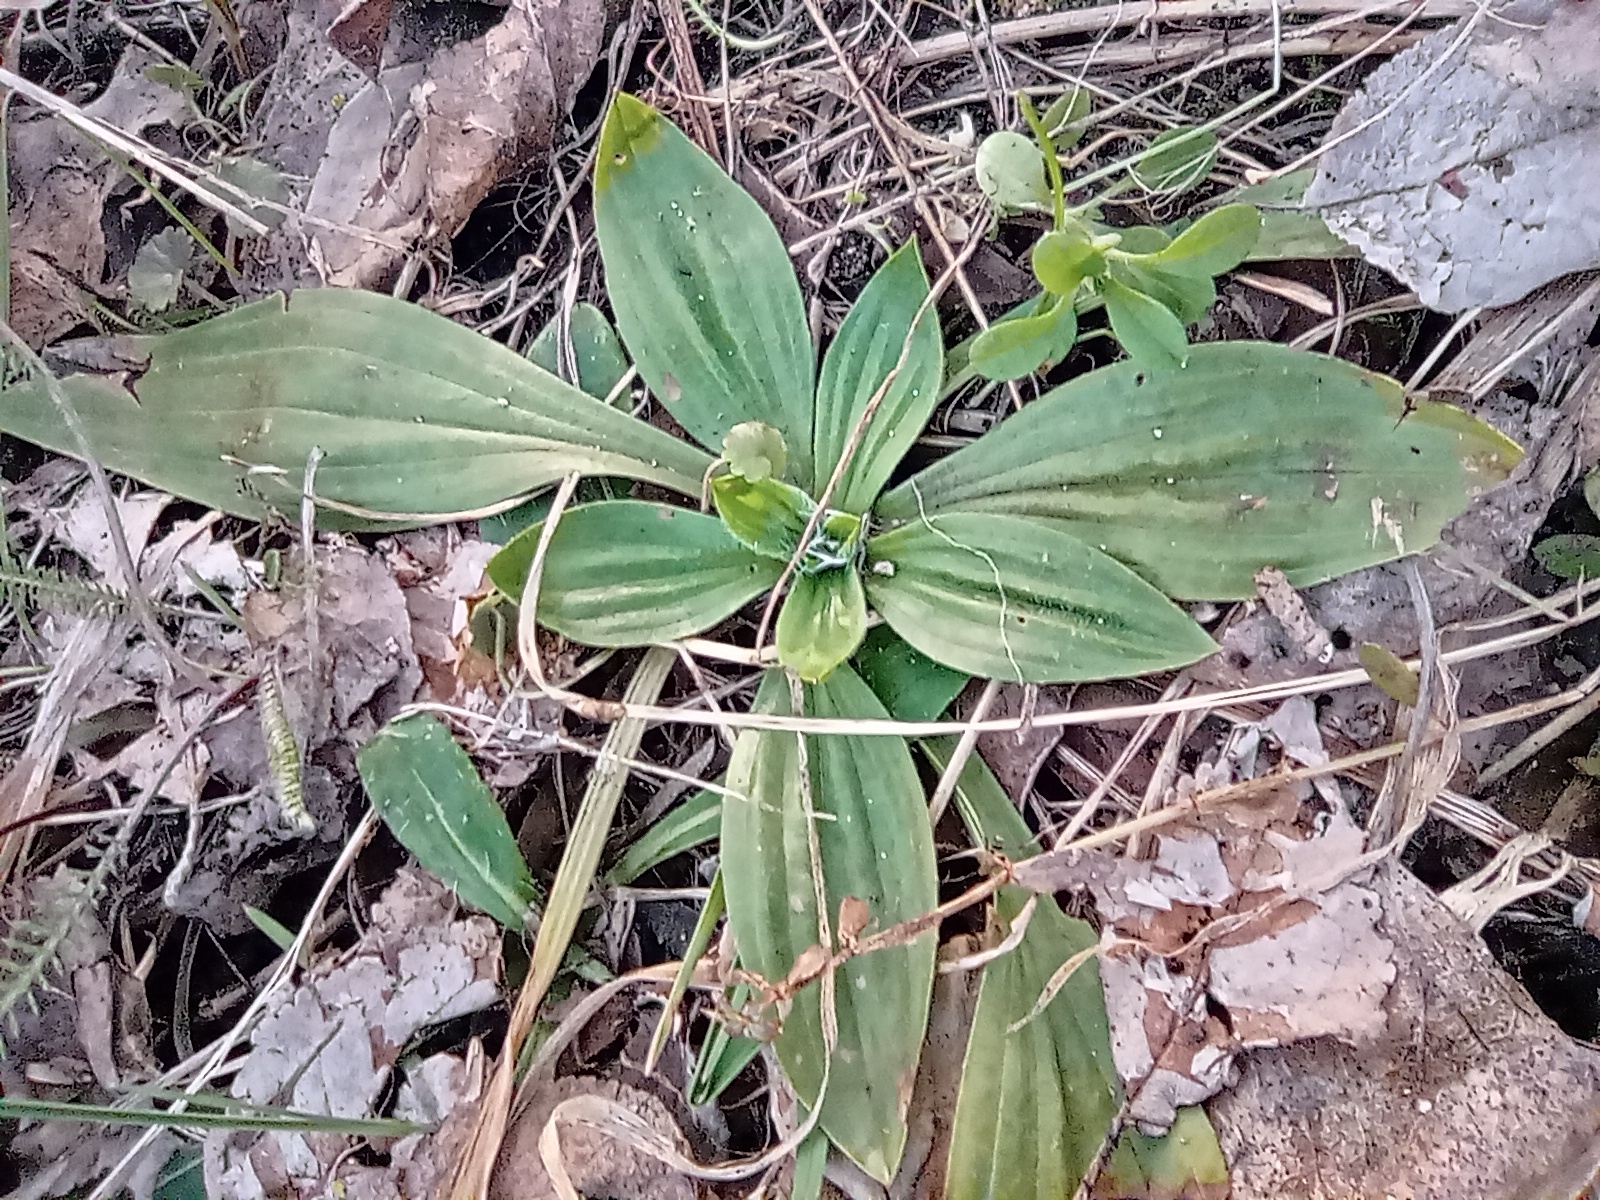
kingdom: Plantae
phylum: Tracheophyta
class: Magnoliopsida
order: Lamiales
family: Plantaginaceae
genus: Plantago
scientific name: Plantago lanceolata
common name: Ribwort plantain
